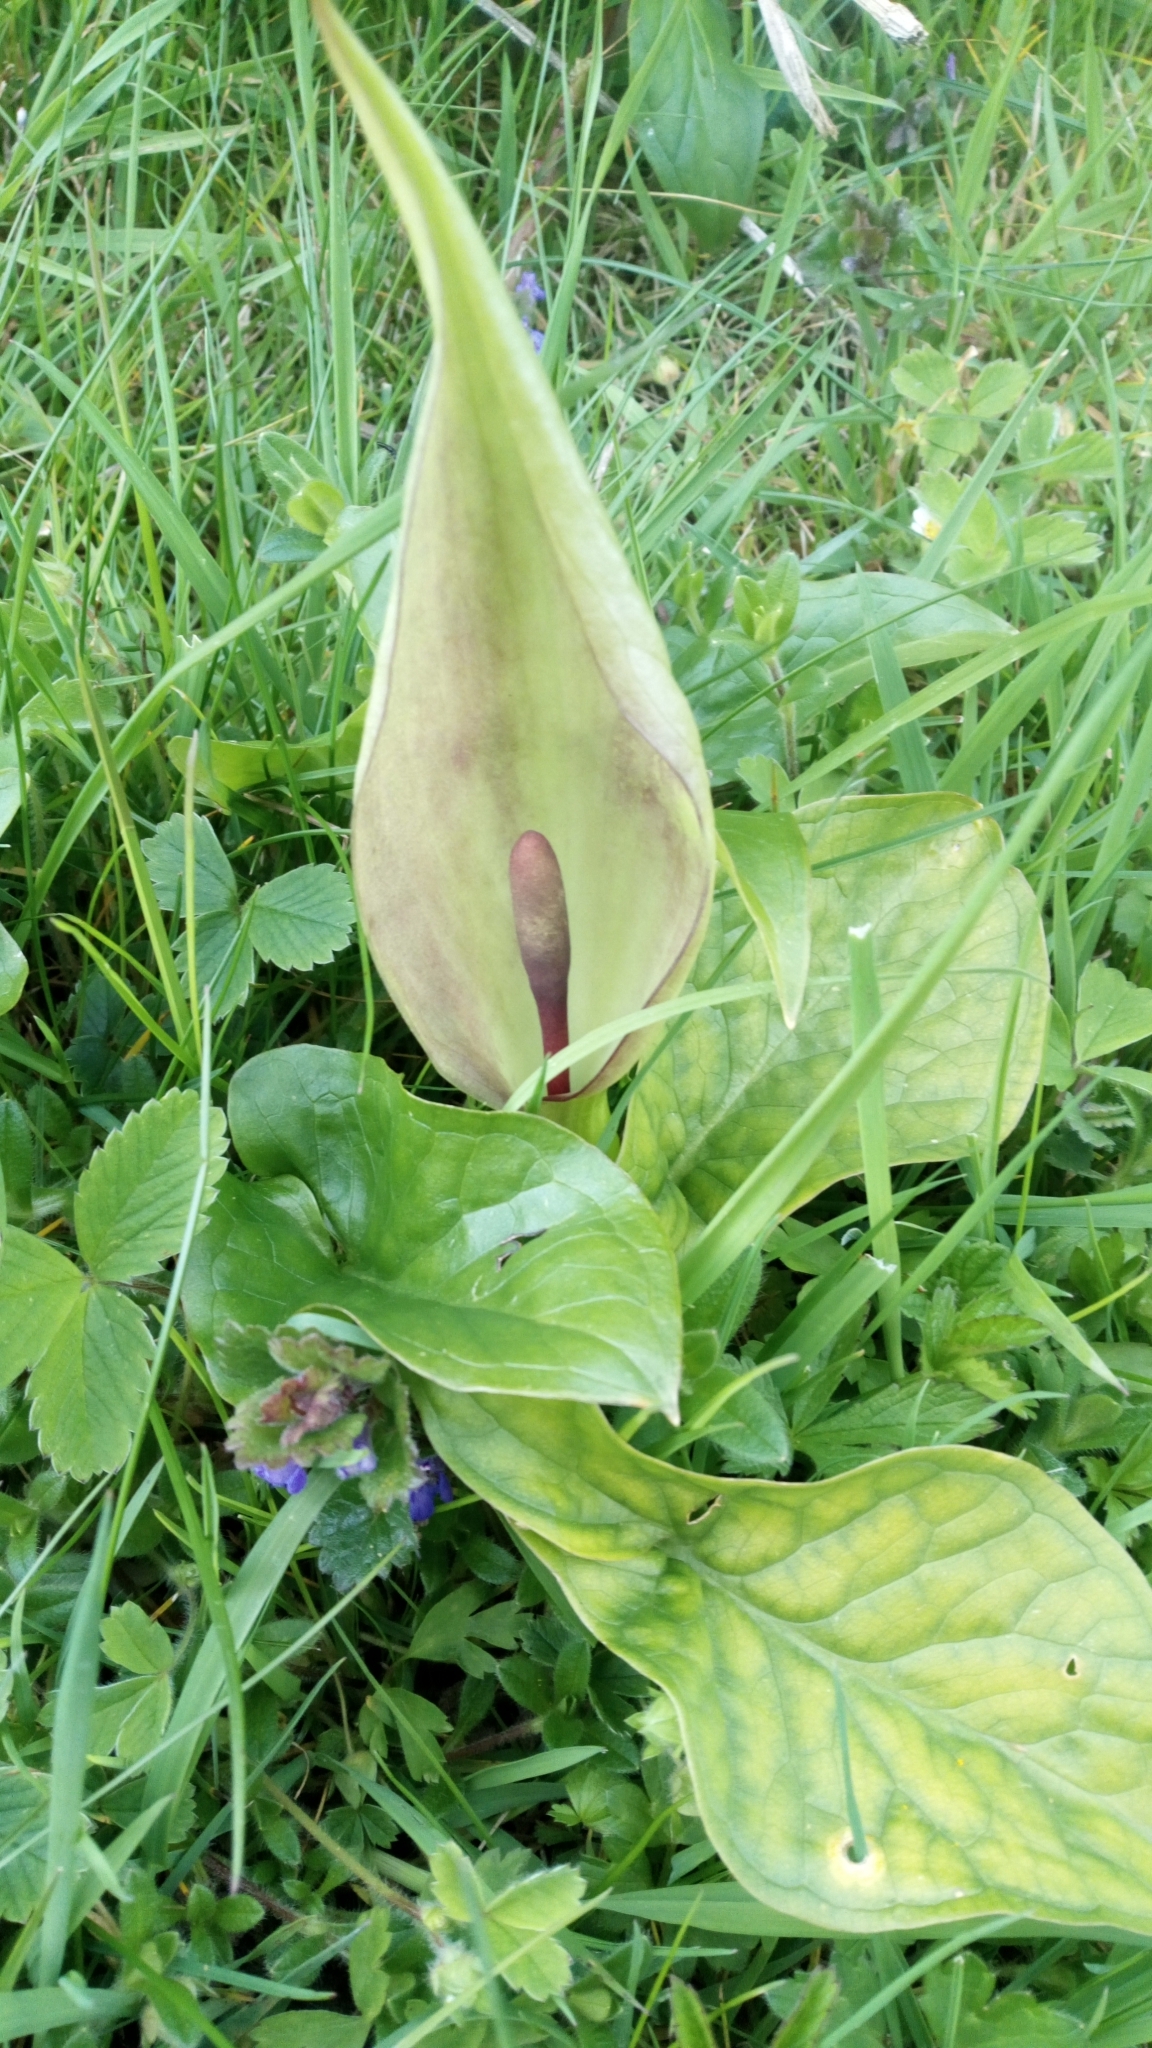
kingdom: Plantae
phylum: Tracheophyta
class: Liliopsida
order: Alismatales
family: Araceae
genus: Arum
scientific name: Arum maculatum
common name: Lords-and-ladies
